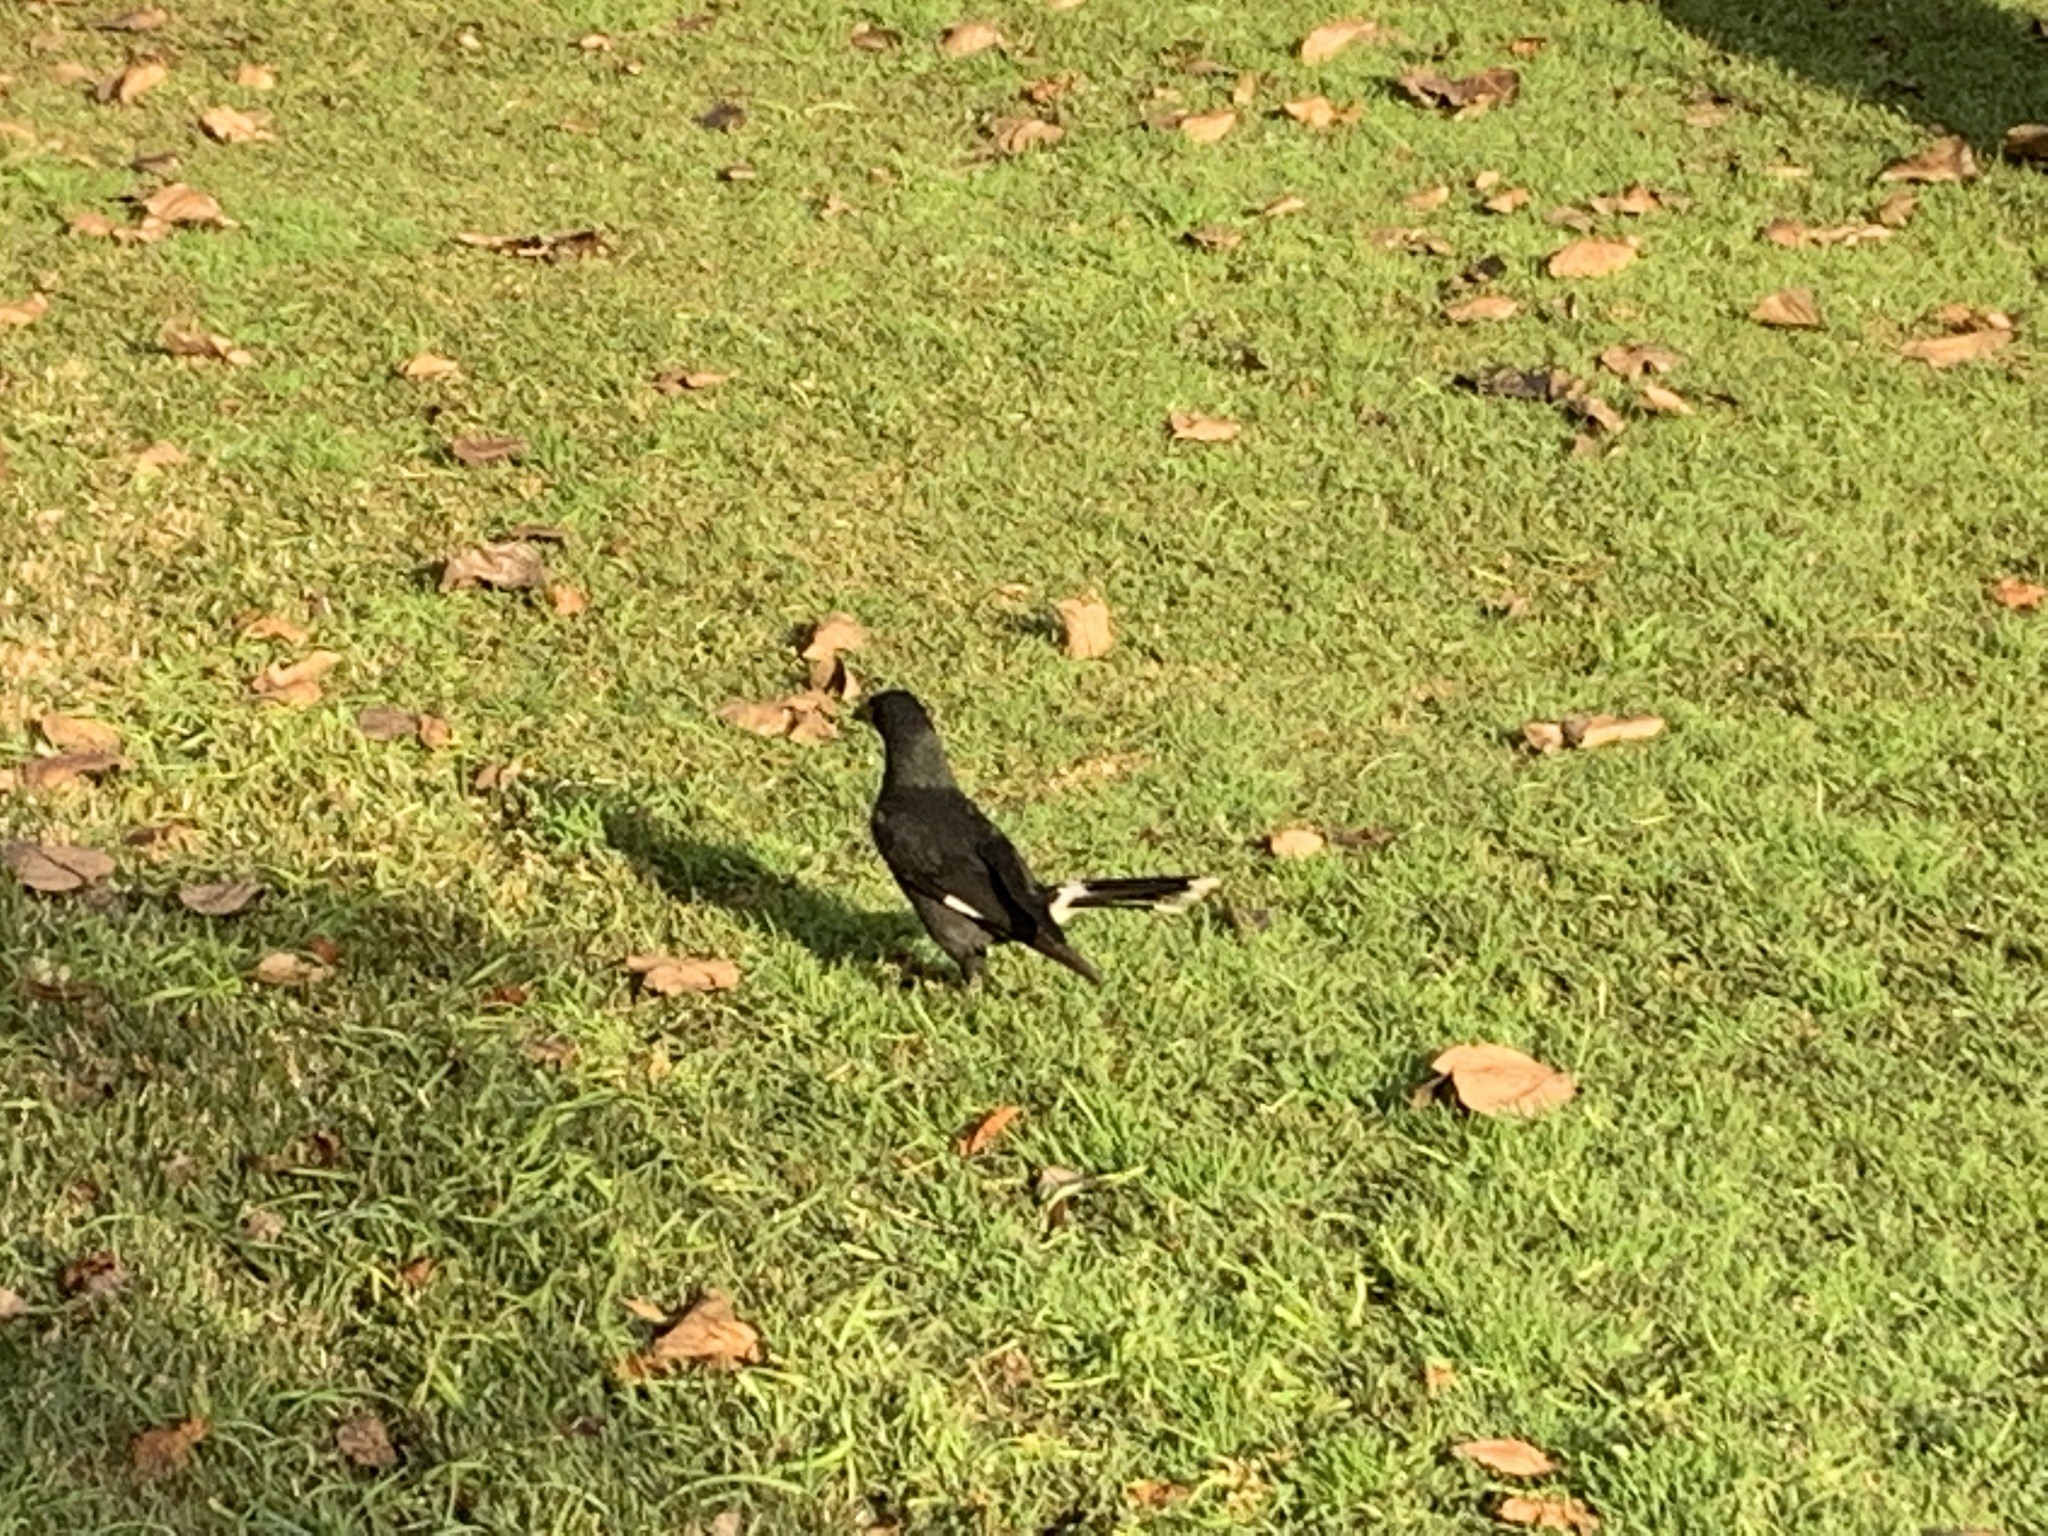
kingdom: Animalia
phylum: Chordata
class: Aves
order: Passeriformes
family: Cracticidae
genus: Strepera
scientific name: Strepera graculina
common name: Pied currawong
